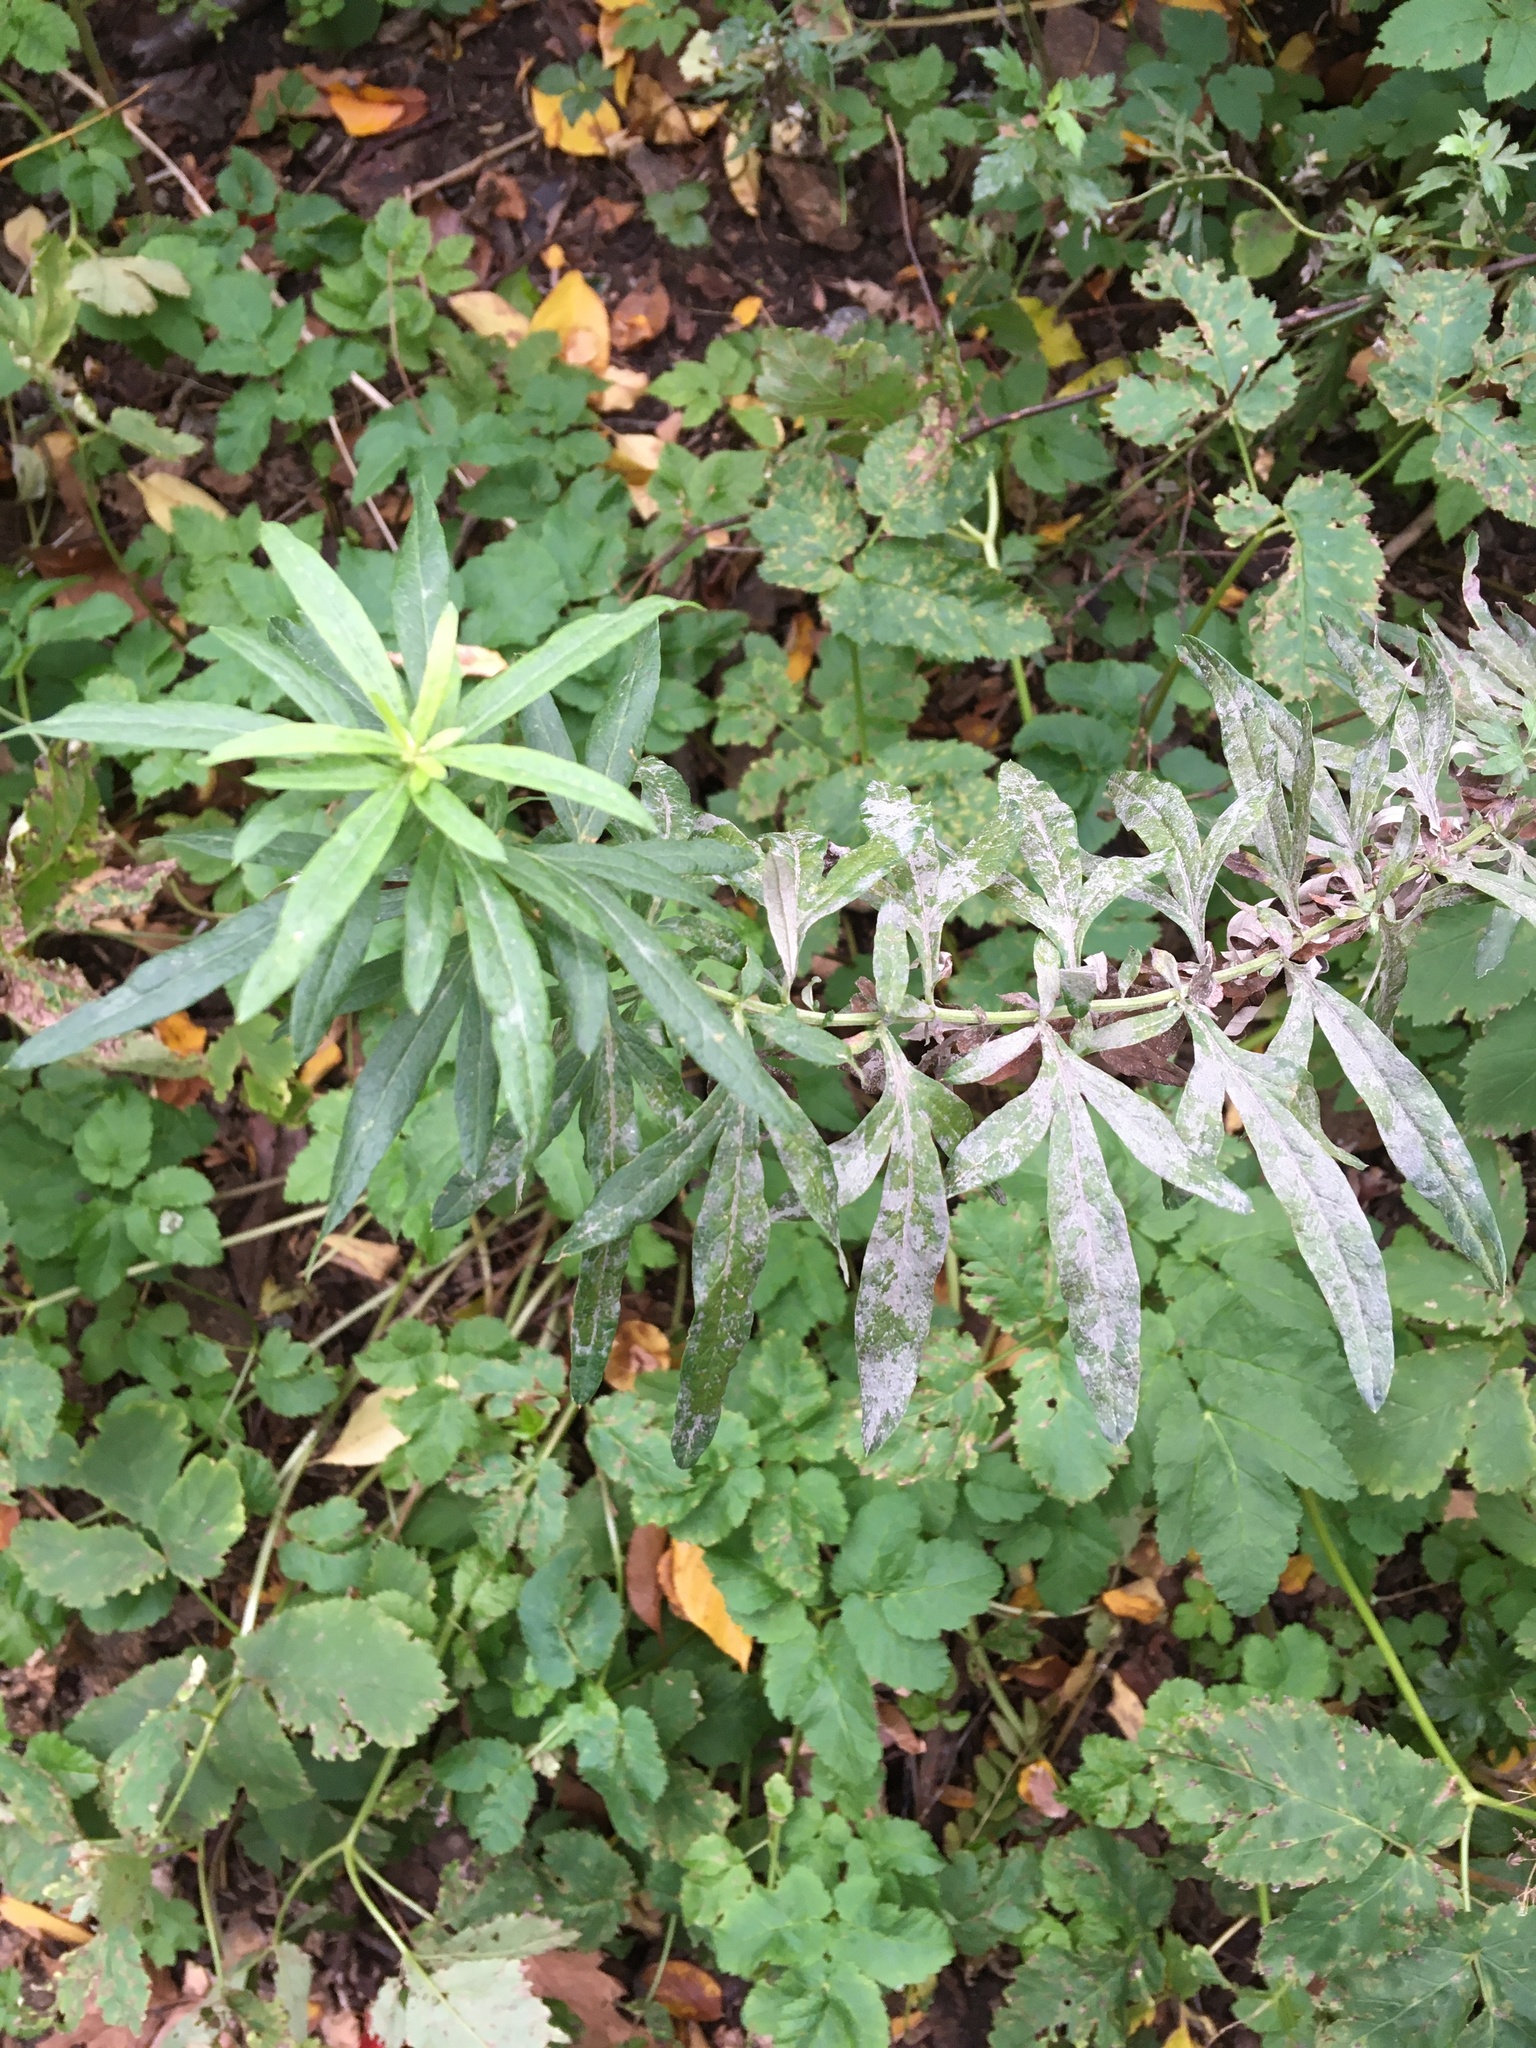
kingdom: Plantae
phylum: Tracheophyta
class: Magnoliopsida
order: Asterales
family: Asteraceae
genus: Artemisia
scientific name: Artemisia vulgaris
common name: Mugwort
